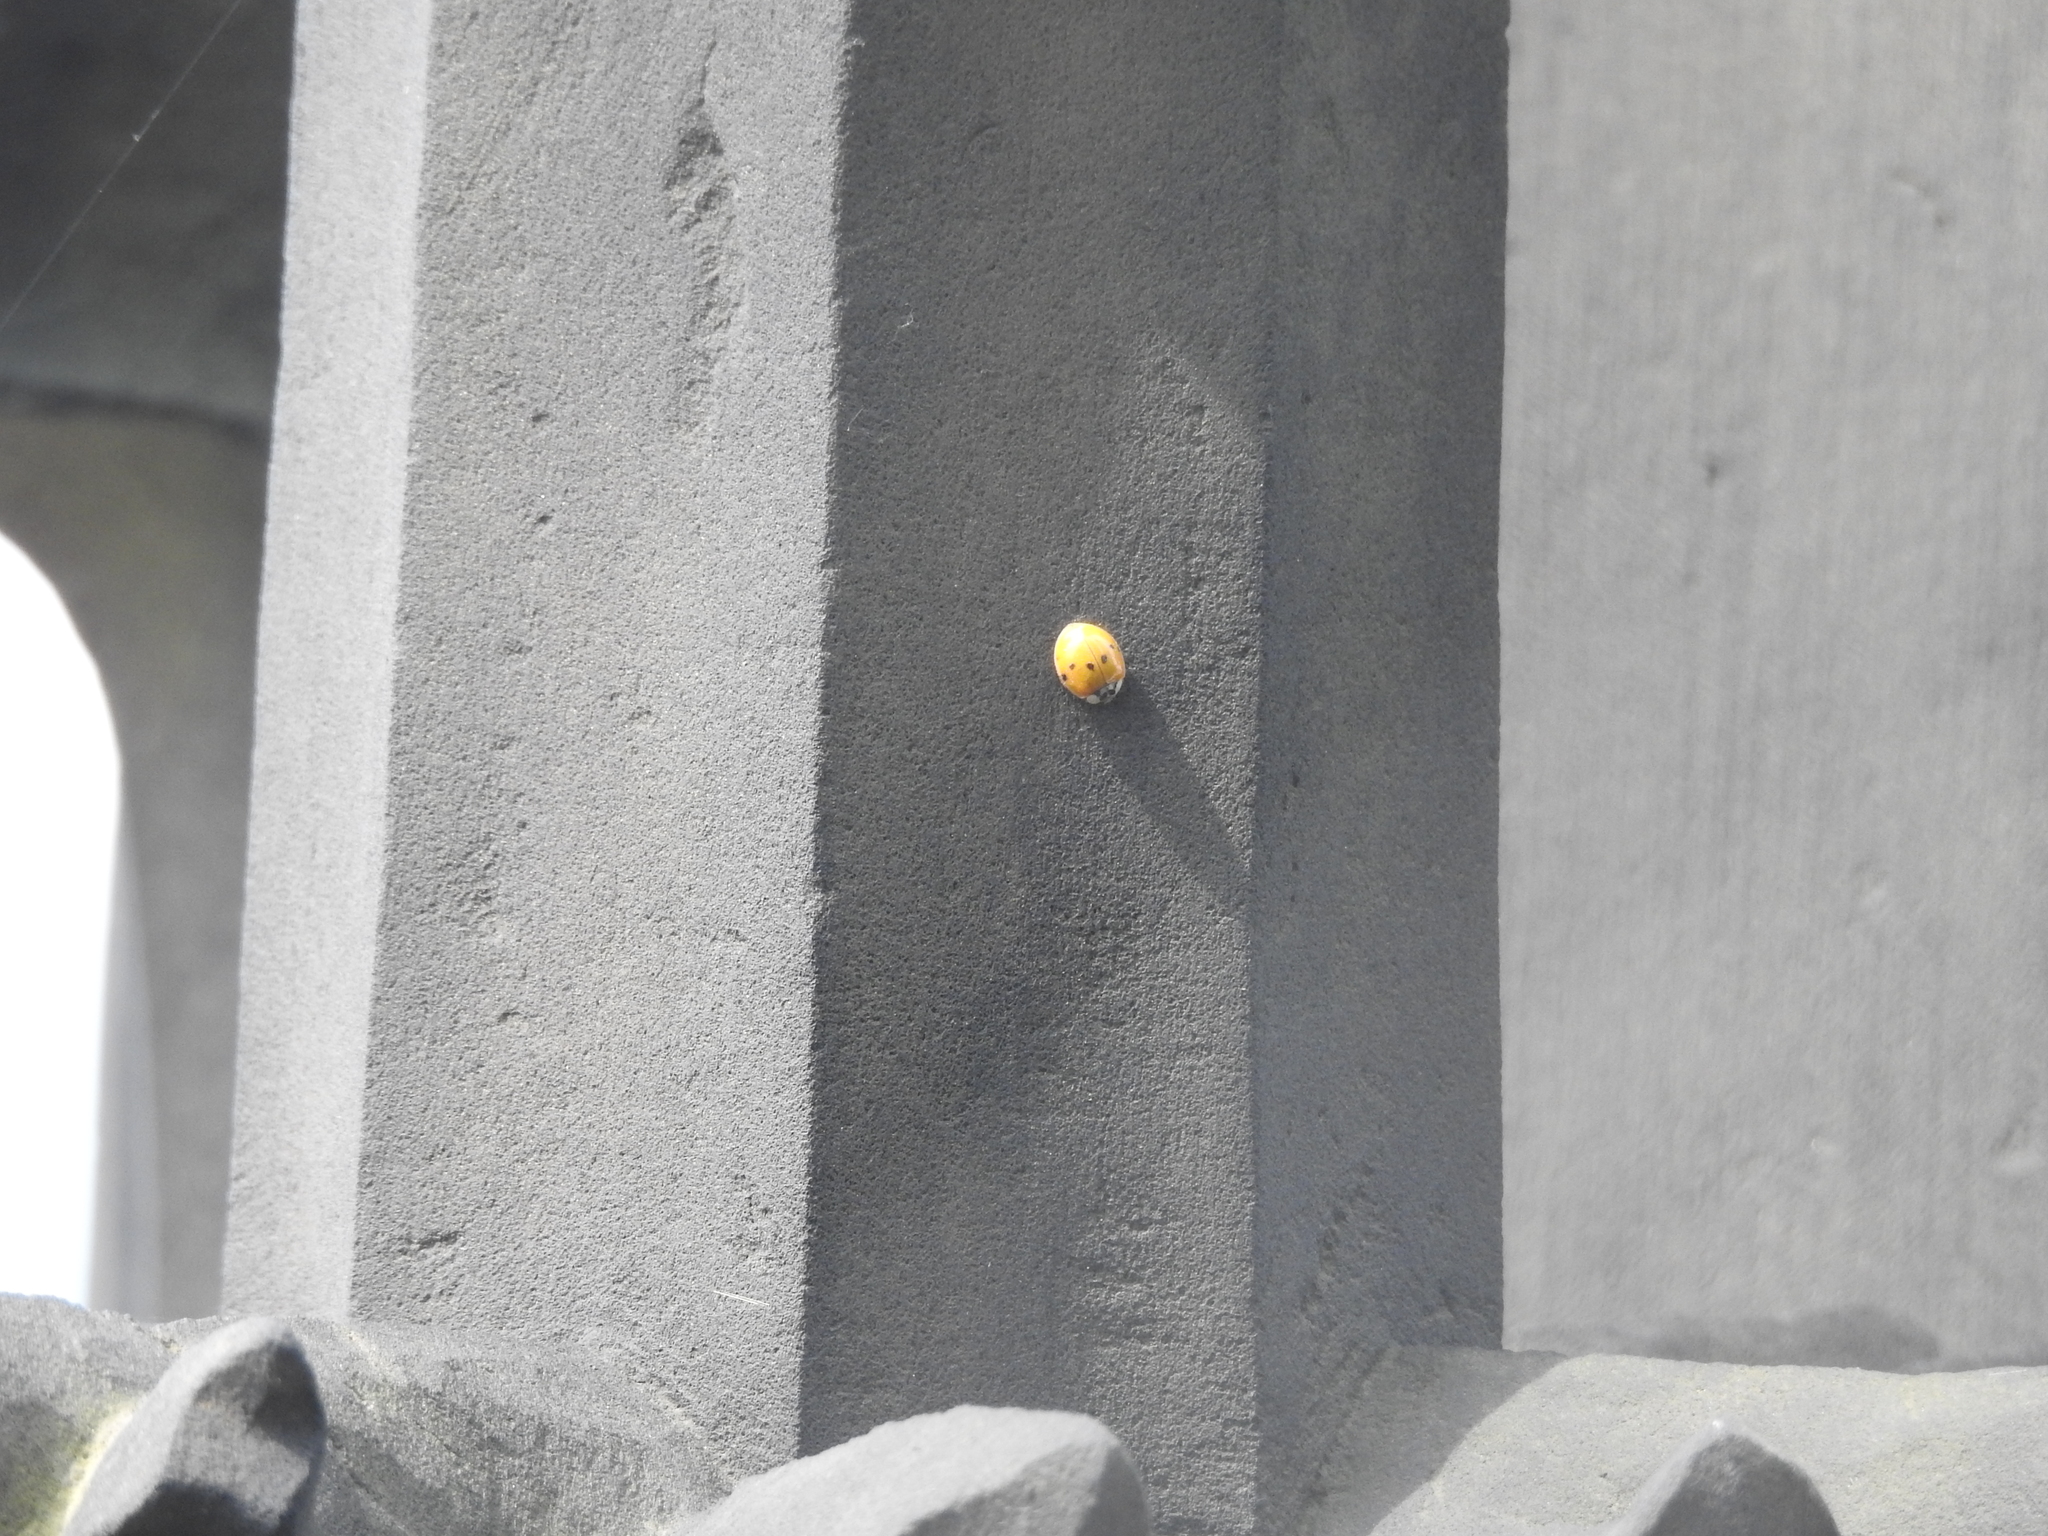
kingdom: Animalia
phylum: Arthropoda
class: Insecta
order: Coleoptera
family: Coccinellidae
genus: Harmonia
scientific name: Harmonia axyridis
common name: Harlequin ladybird
